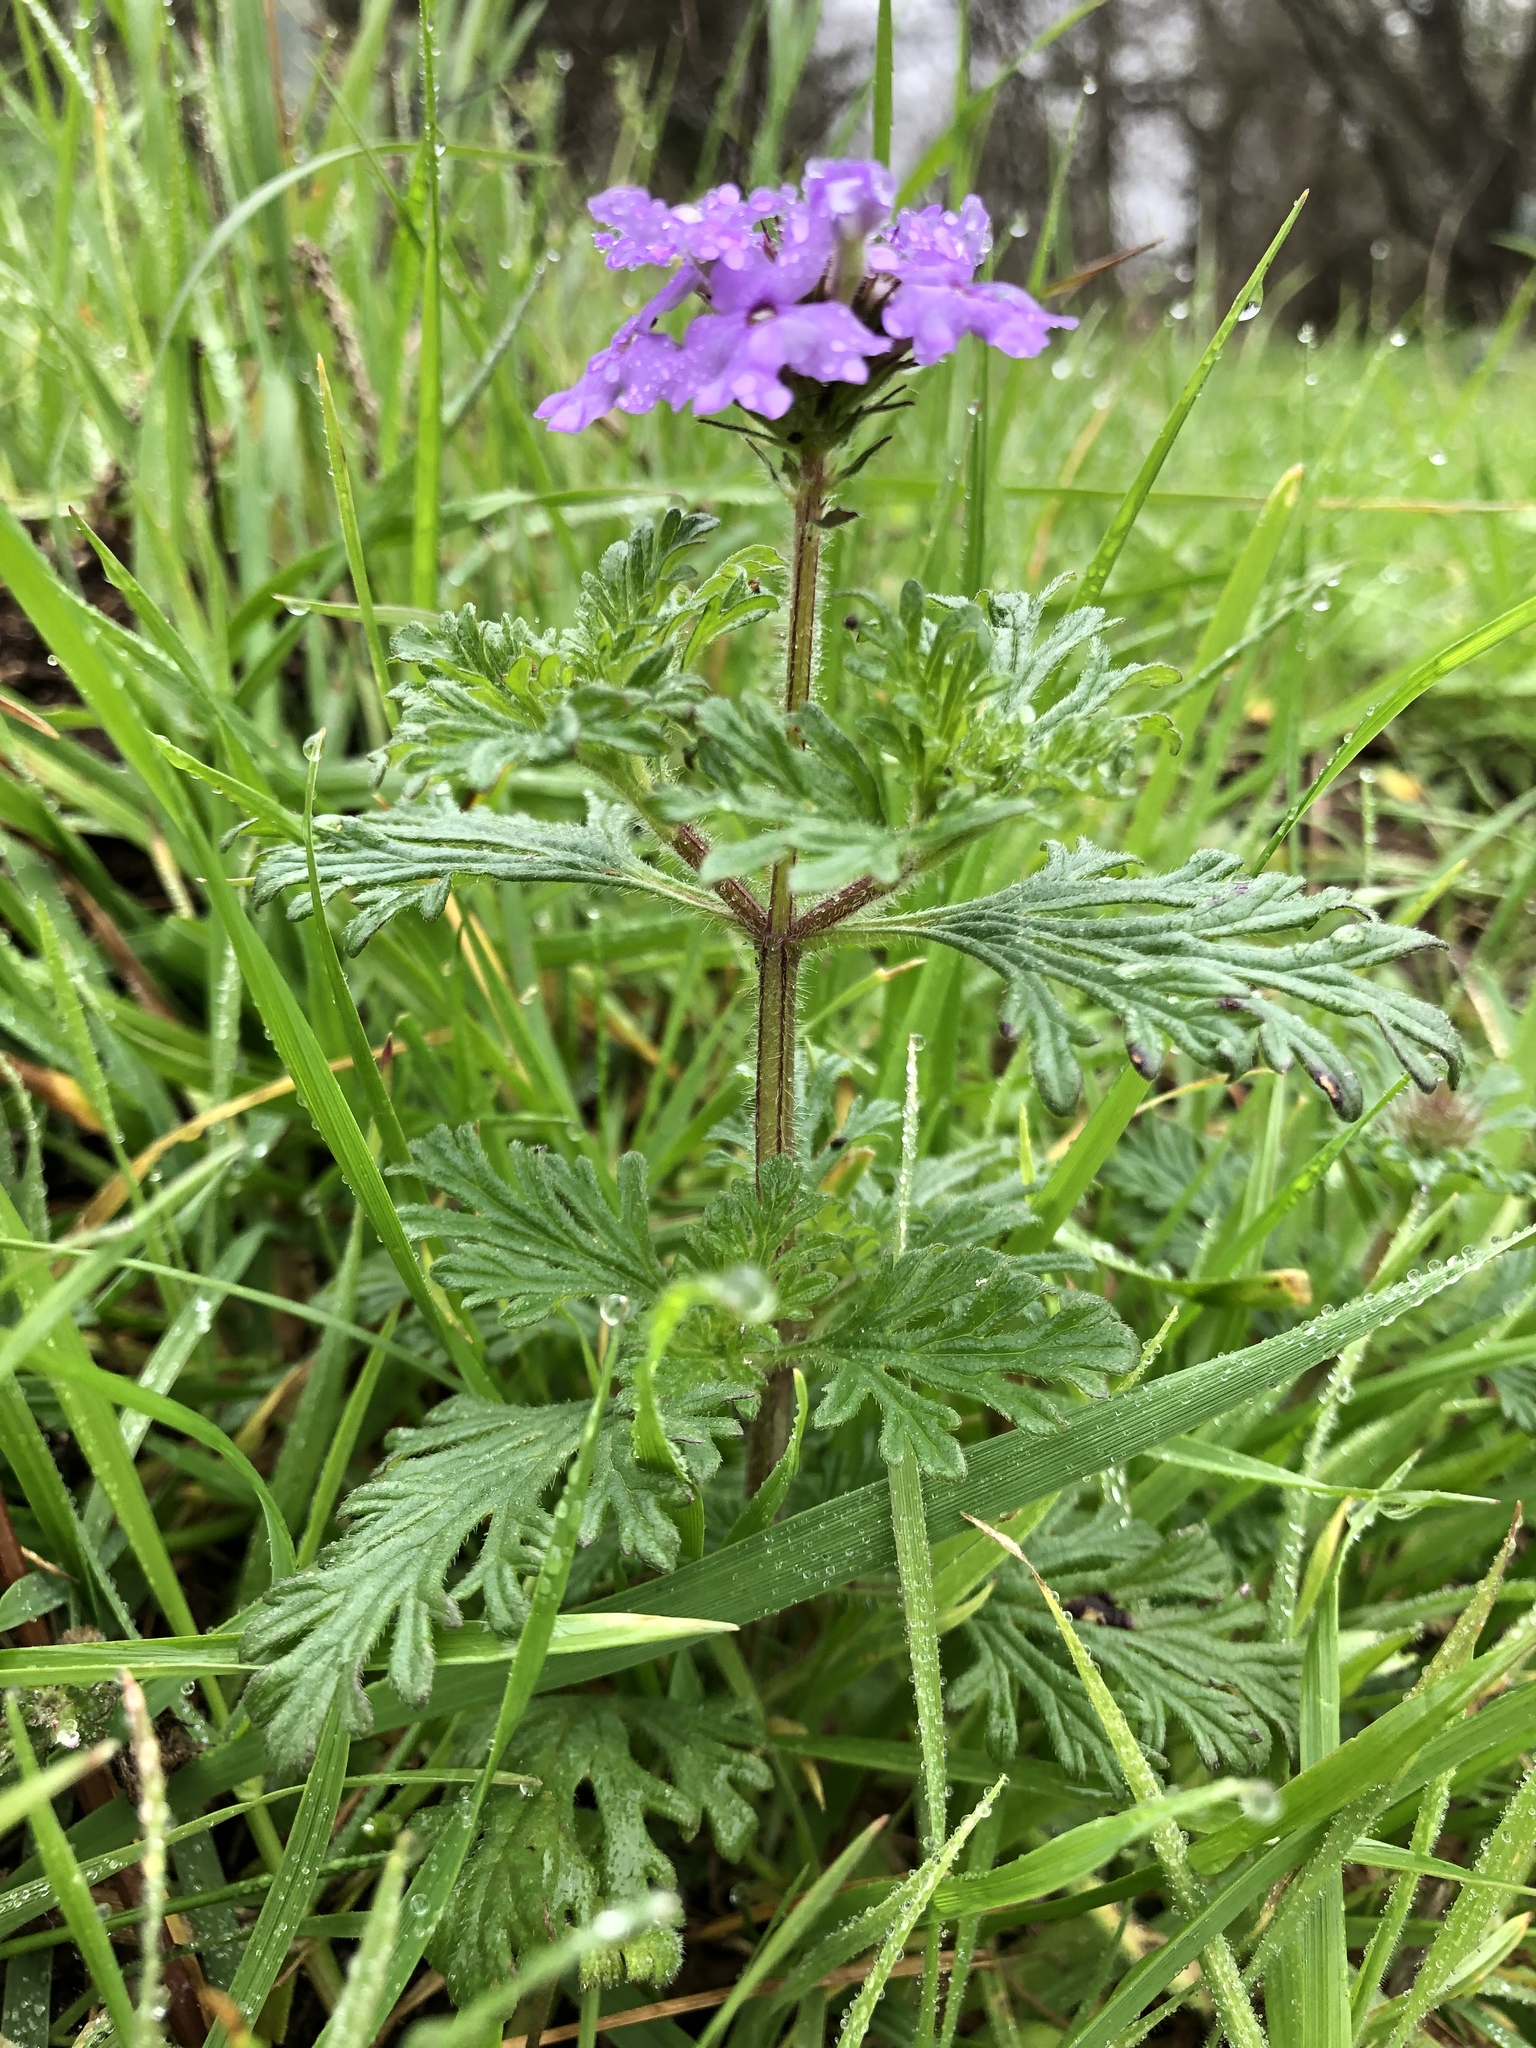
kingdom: Plantae
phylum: Tracheophyta
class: Magnoliopsida
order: Lamiales
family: Verbenaceae
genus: Verbena
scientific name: Verbena bipinnatifida
